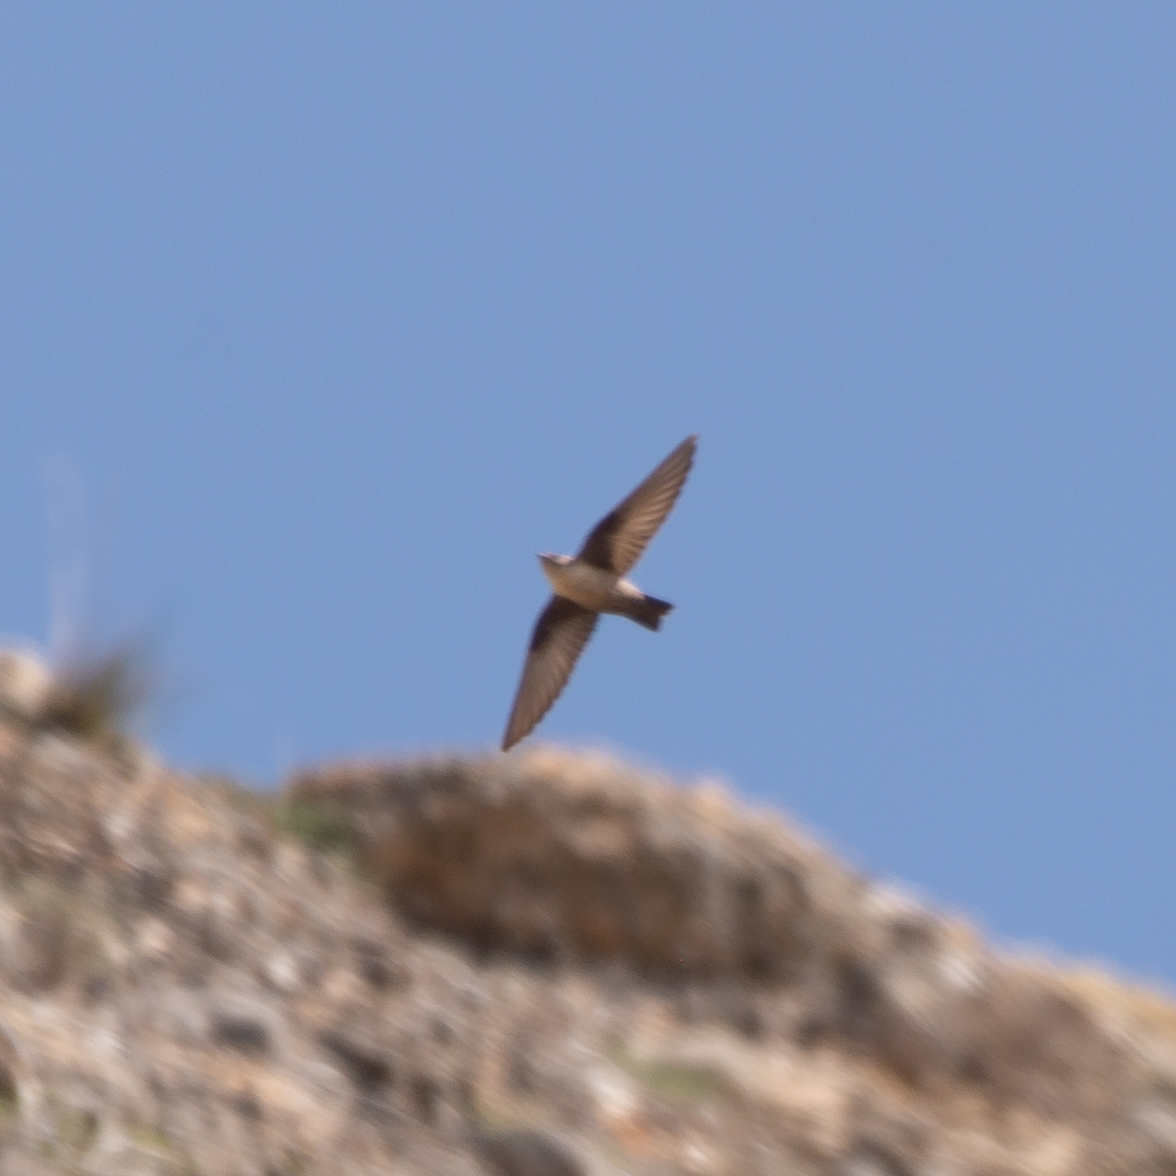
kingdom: Animalia
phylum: Chordata
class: Aves
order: Passeriformes
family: Hirundinidae
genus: Ptyonoprogne
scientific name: Ptyonoprogne rupestris
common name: Eurasian crag martin
